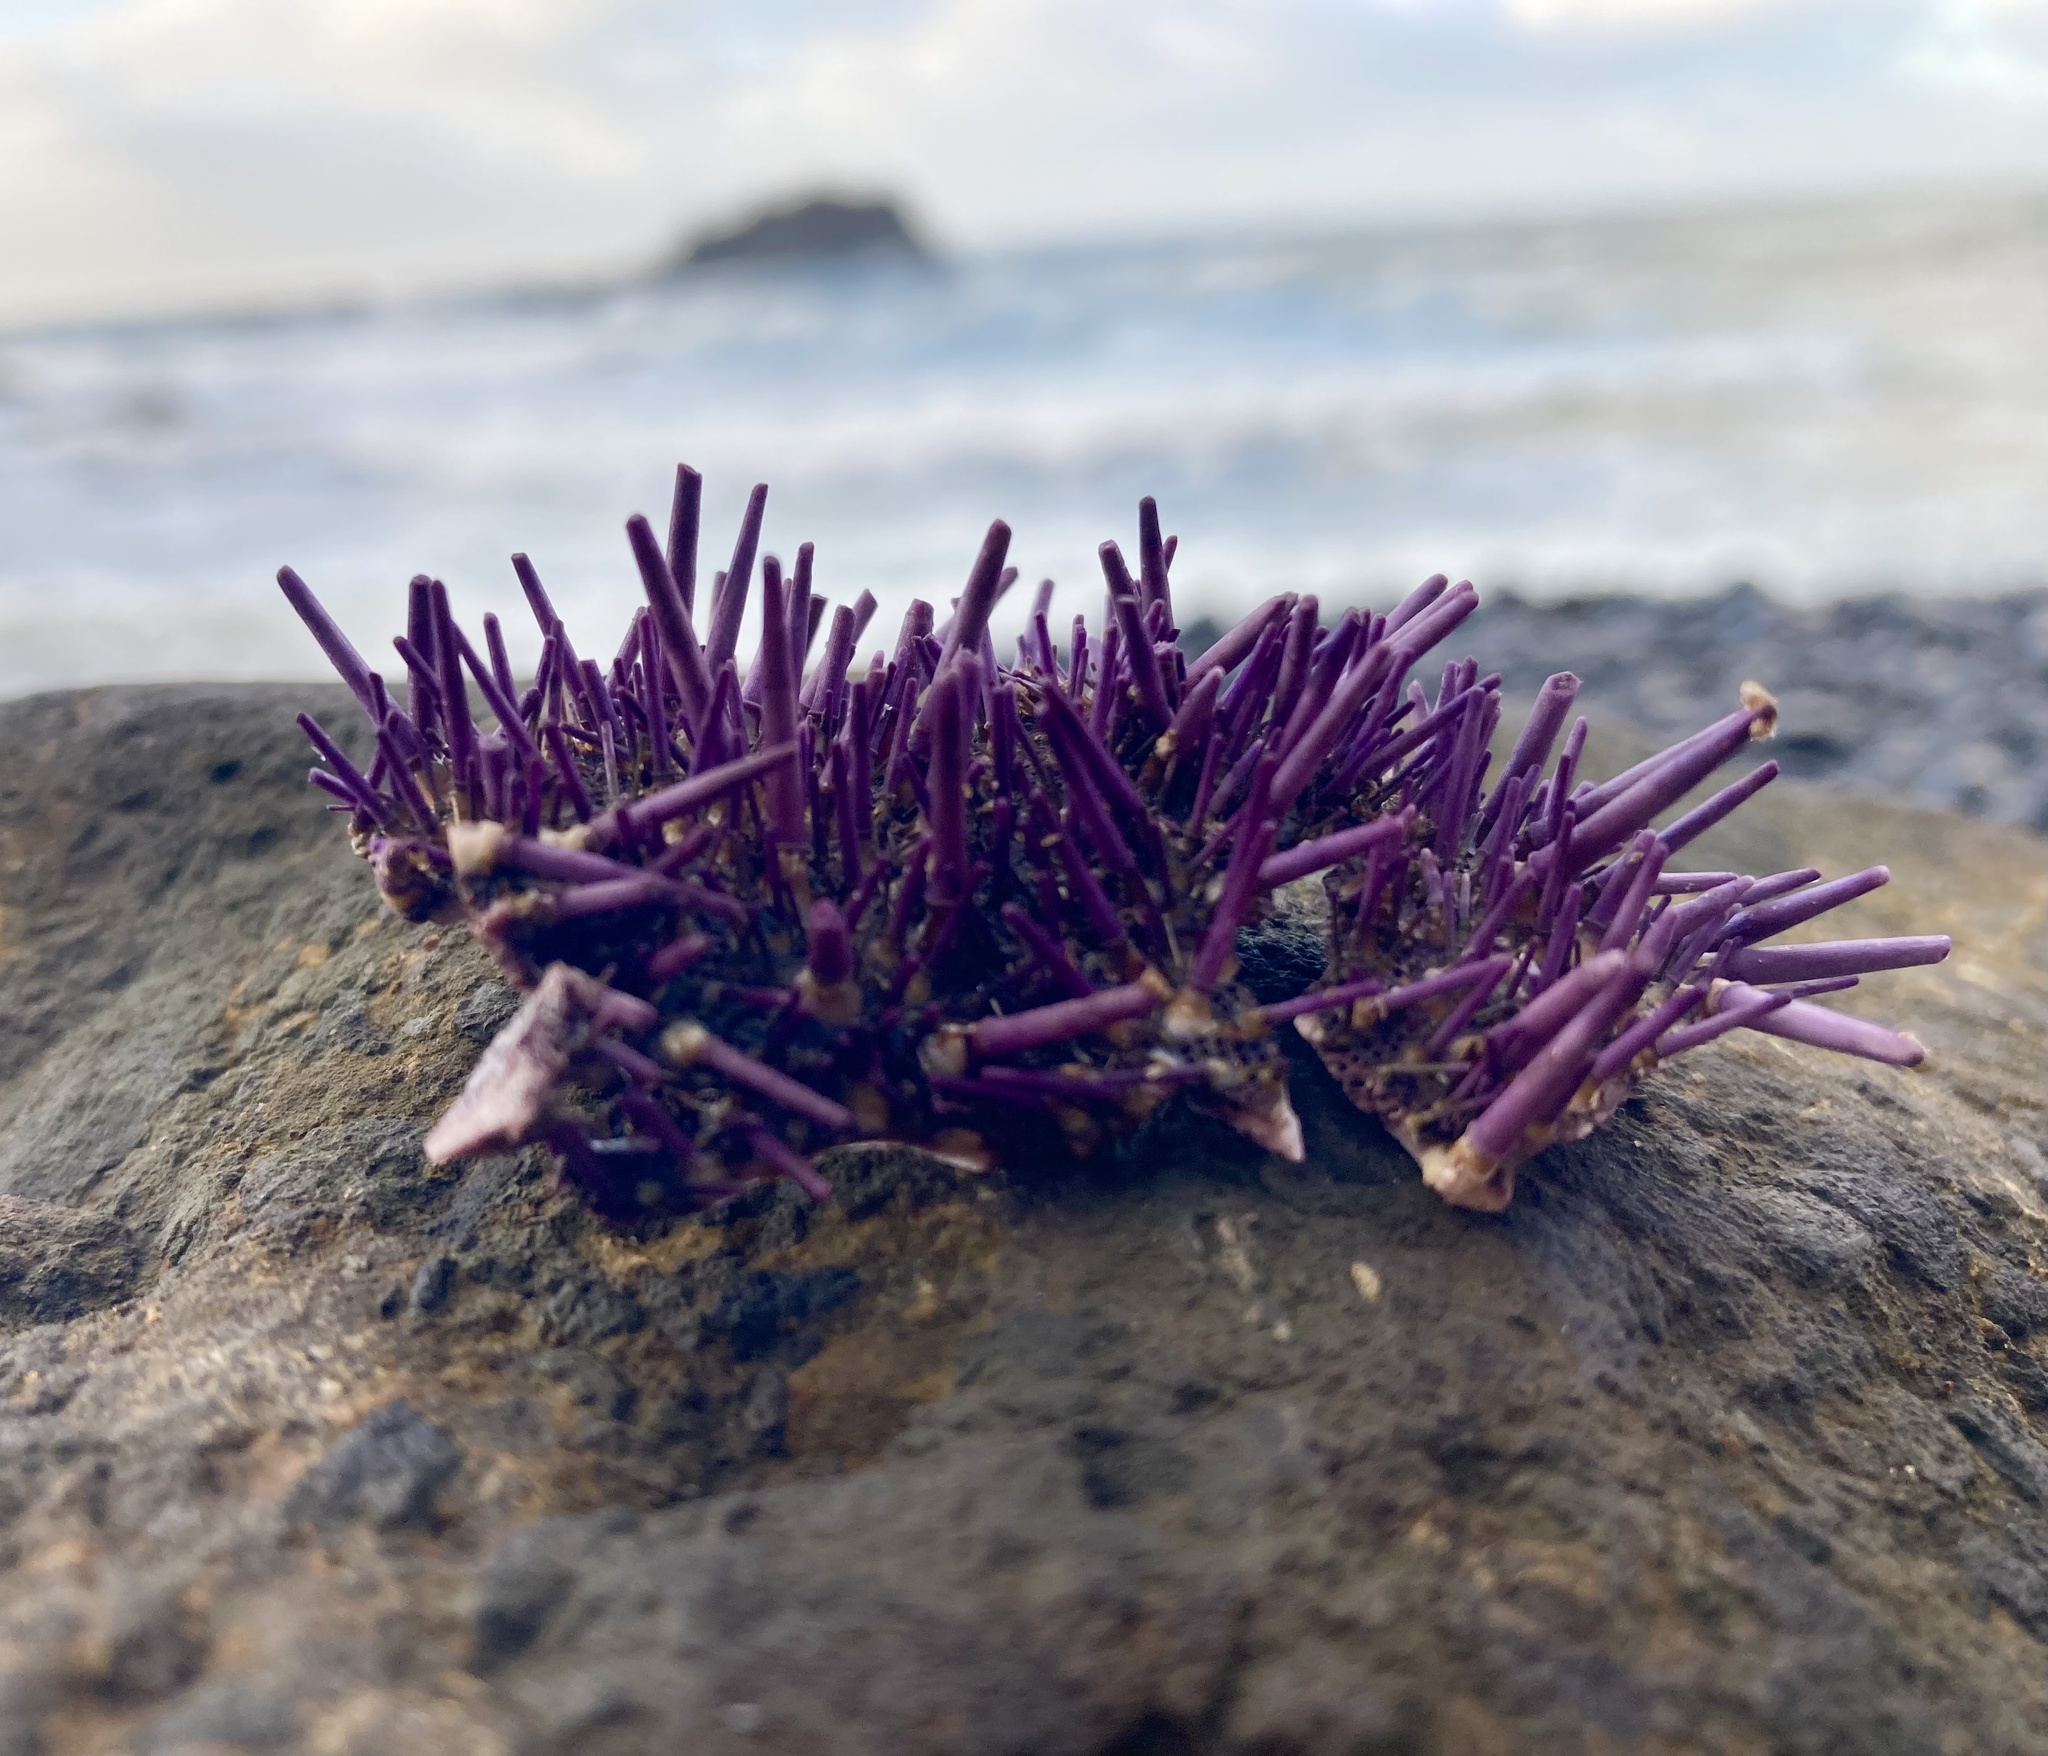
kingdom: Animalia
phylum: Echinodermata
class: Echinoidea
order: Camarodonta
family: Strongylocentrotidae
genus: Strongylocentrotus
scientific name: Strongylocentrotus purpuratus
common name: Purple sea urchin
